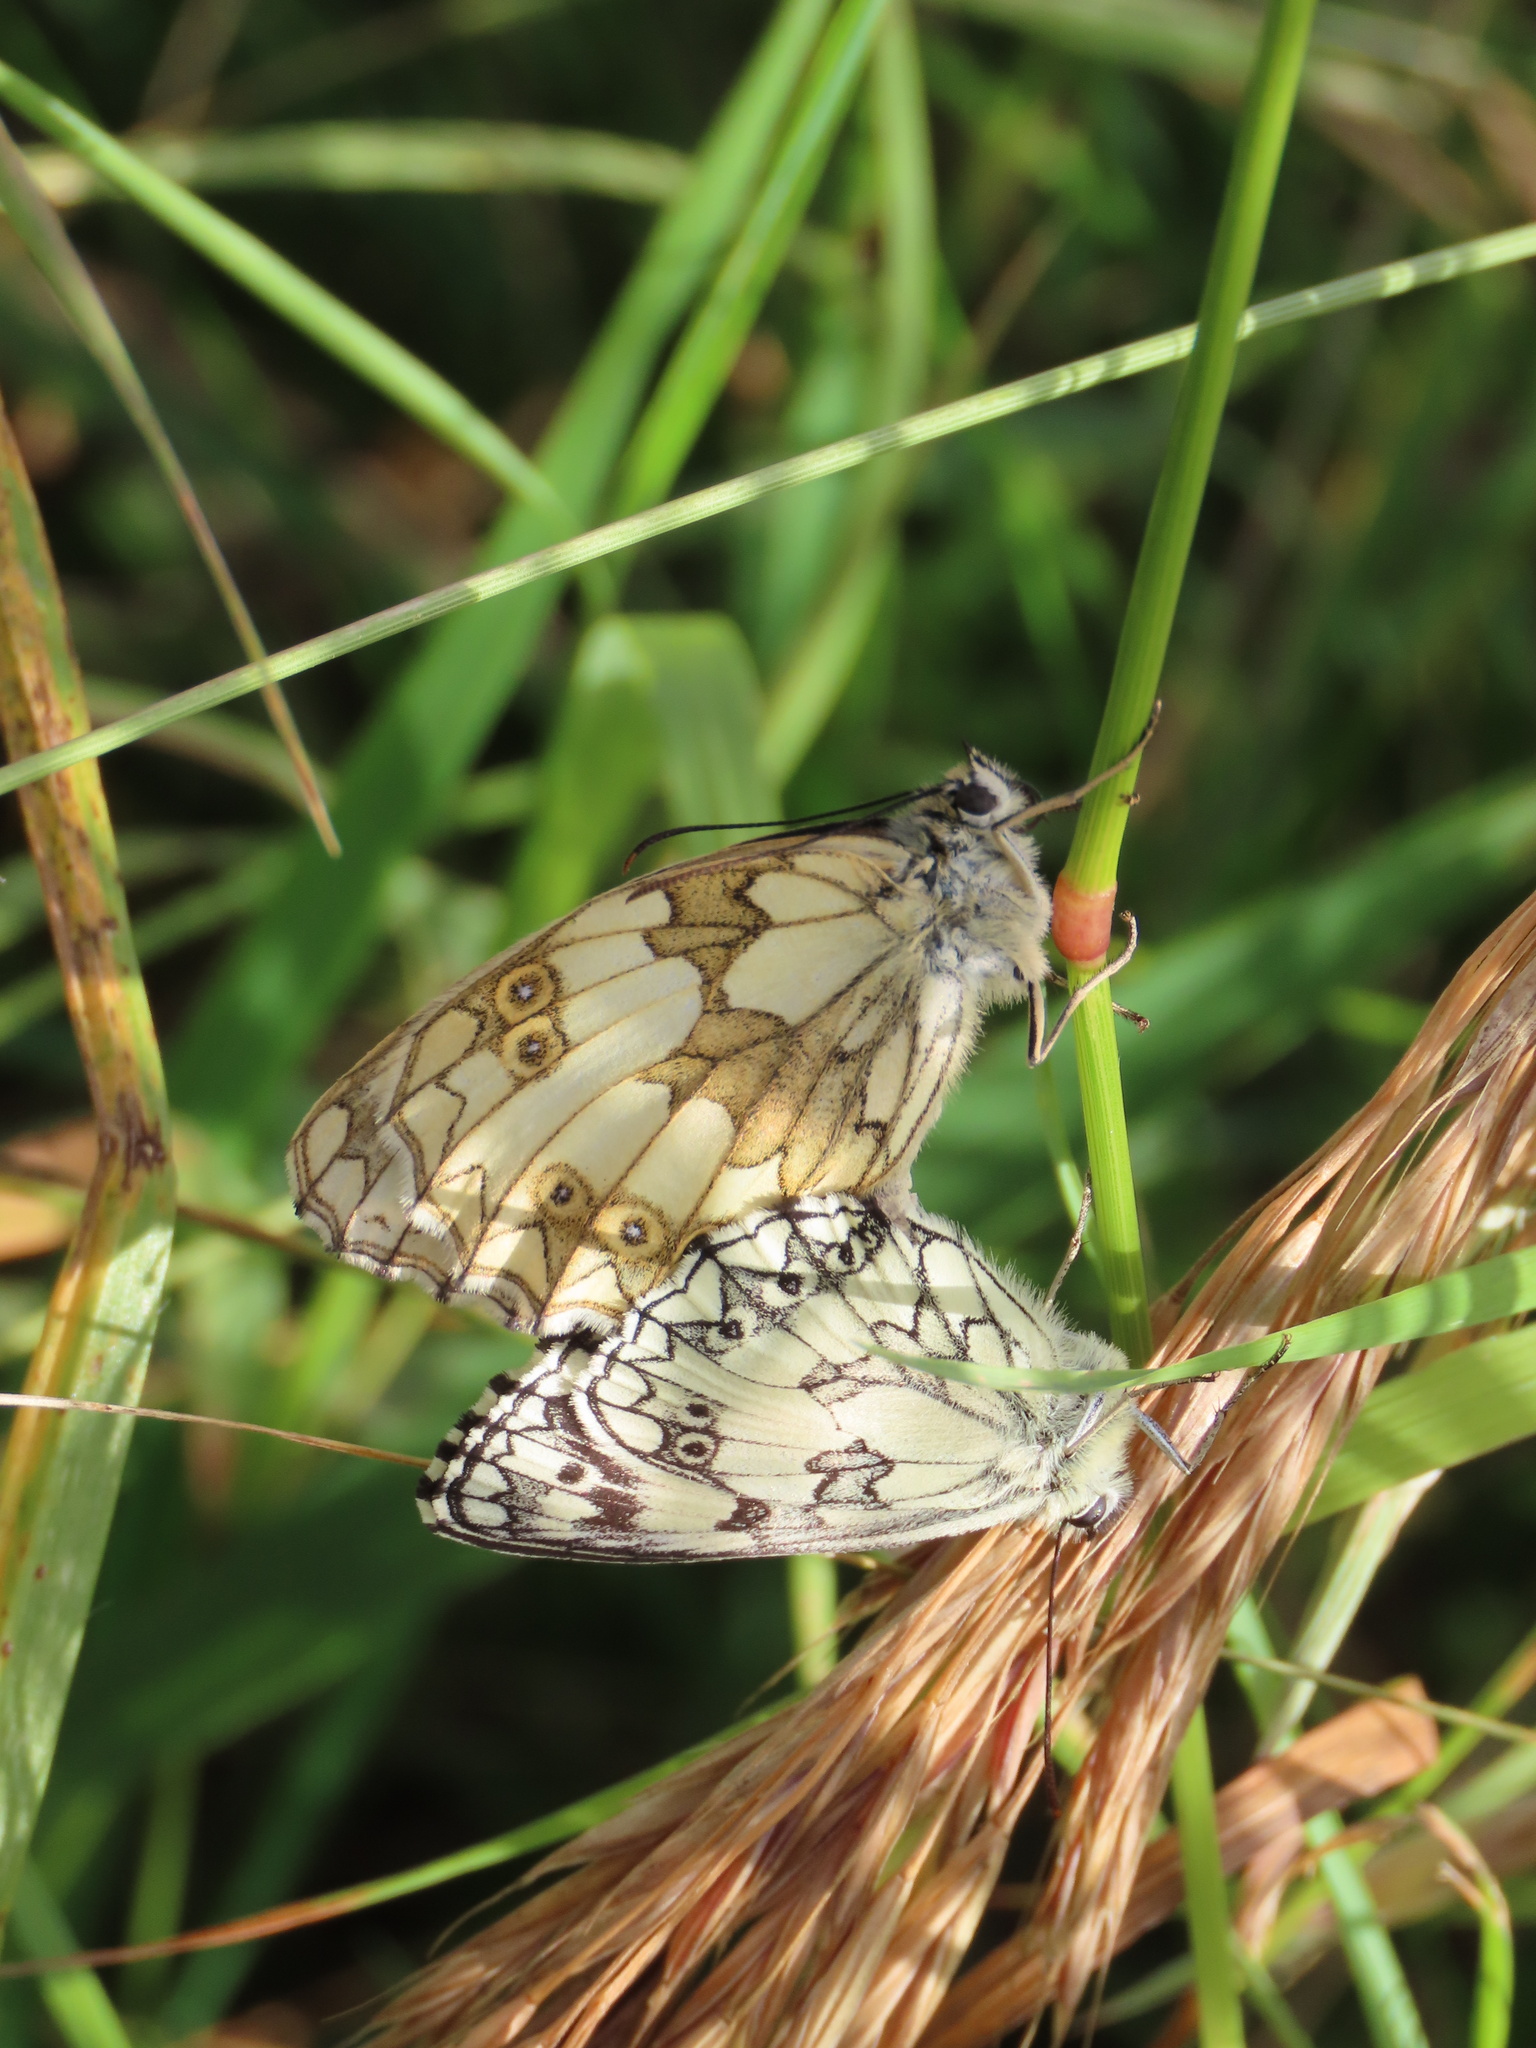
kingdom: Animalia
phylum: Arthropoda
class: Insecta
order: Lepidoptera
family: Nymphalidae
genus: Melanargia
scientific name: Melanargia galathea
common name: Marbled white
